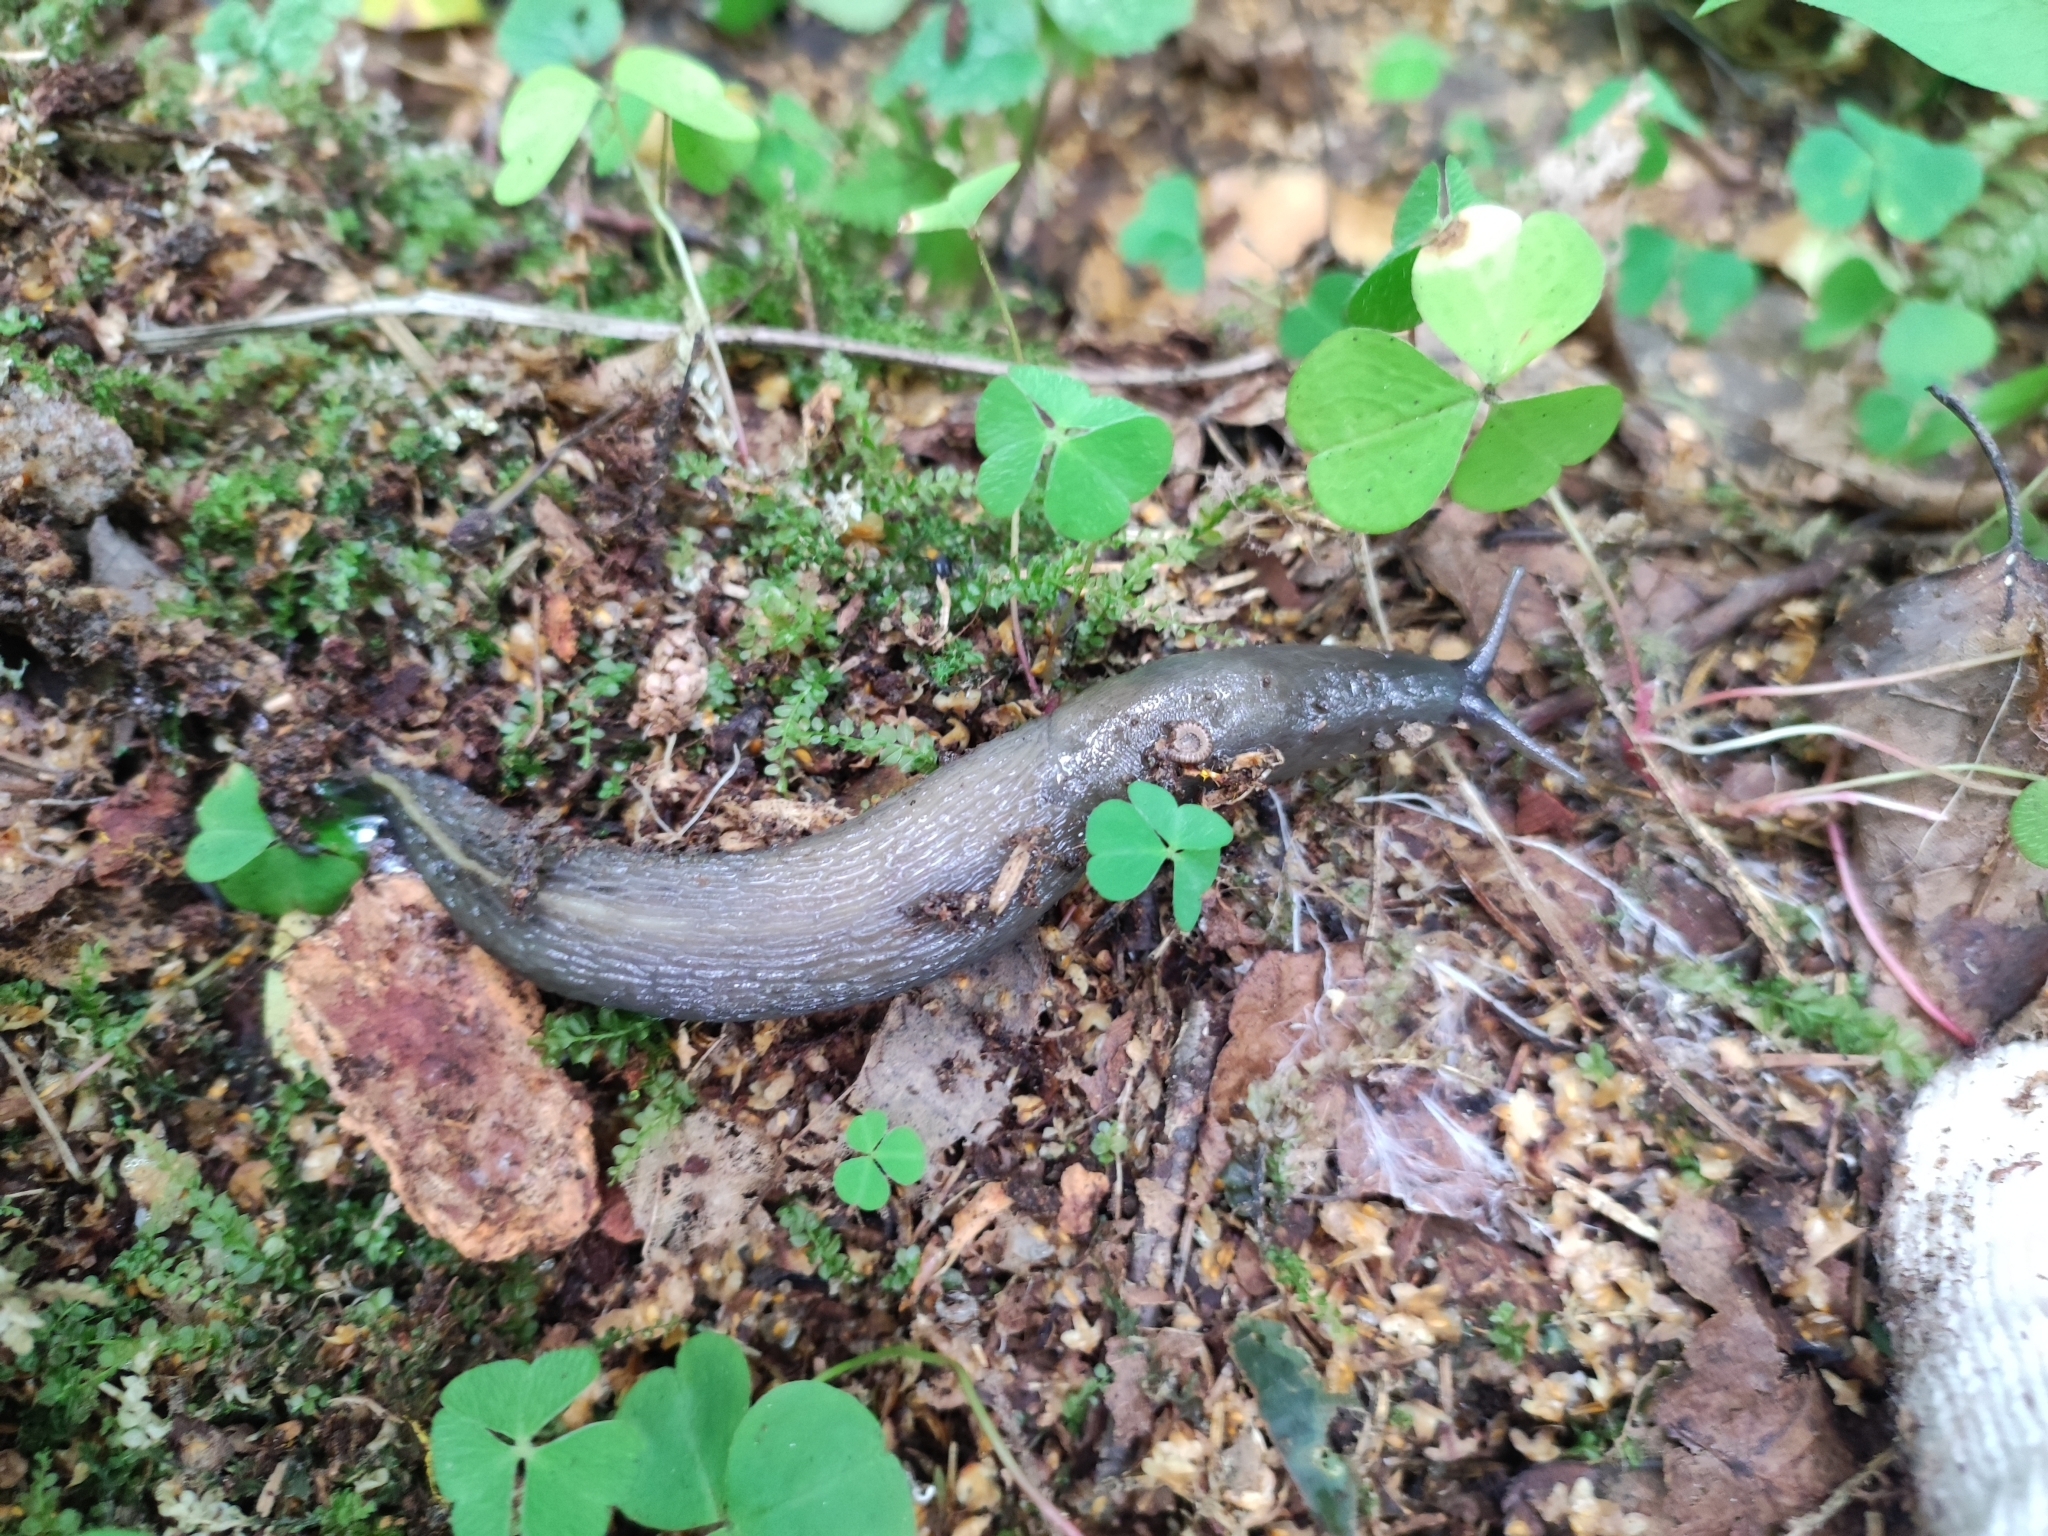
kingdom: Animalia
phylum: Mollusca
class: Gastropoda
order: Stylommatophora
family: Limacidae
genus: Limax
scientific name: Limax cinereoniger
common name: Ash-black slug
